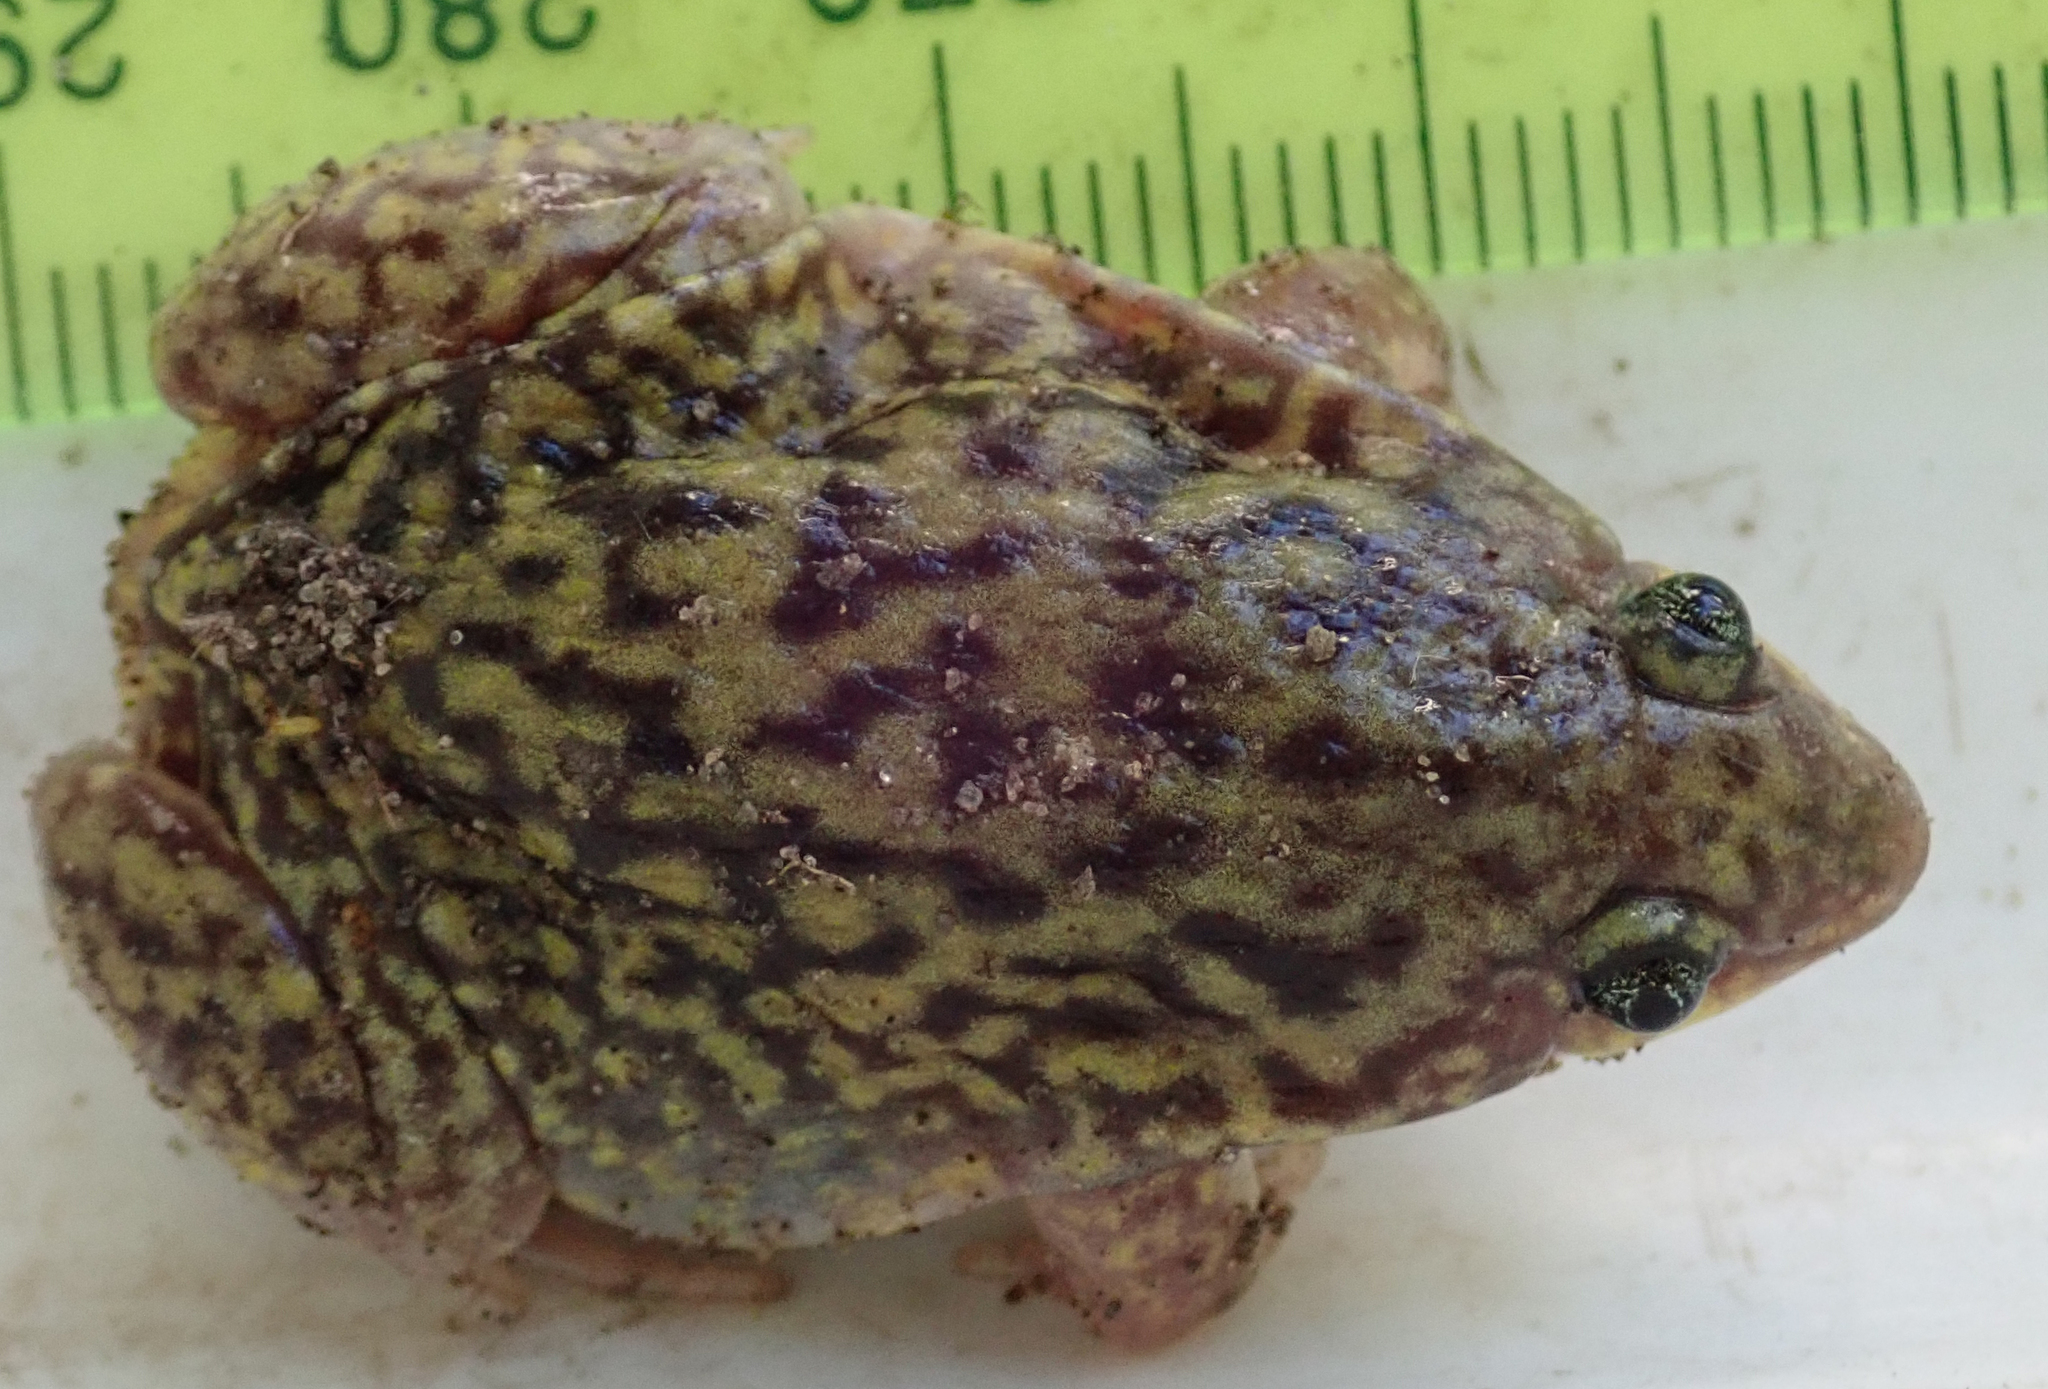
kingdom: Animalia
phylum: Chordata
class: Amphibia
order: Anura
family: Hemisotidae
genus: Hemisus
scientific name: Hemisus marmoratus
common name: Mottled shovel-nosed frog
